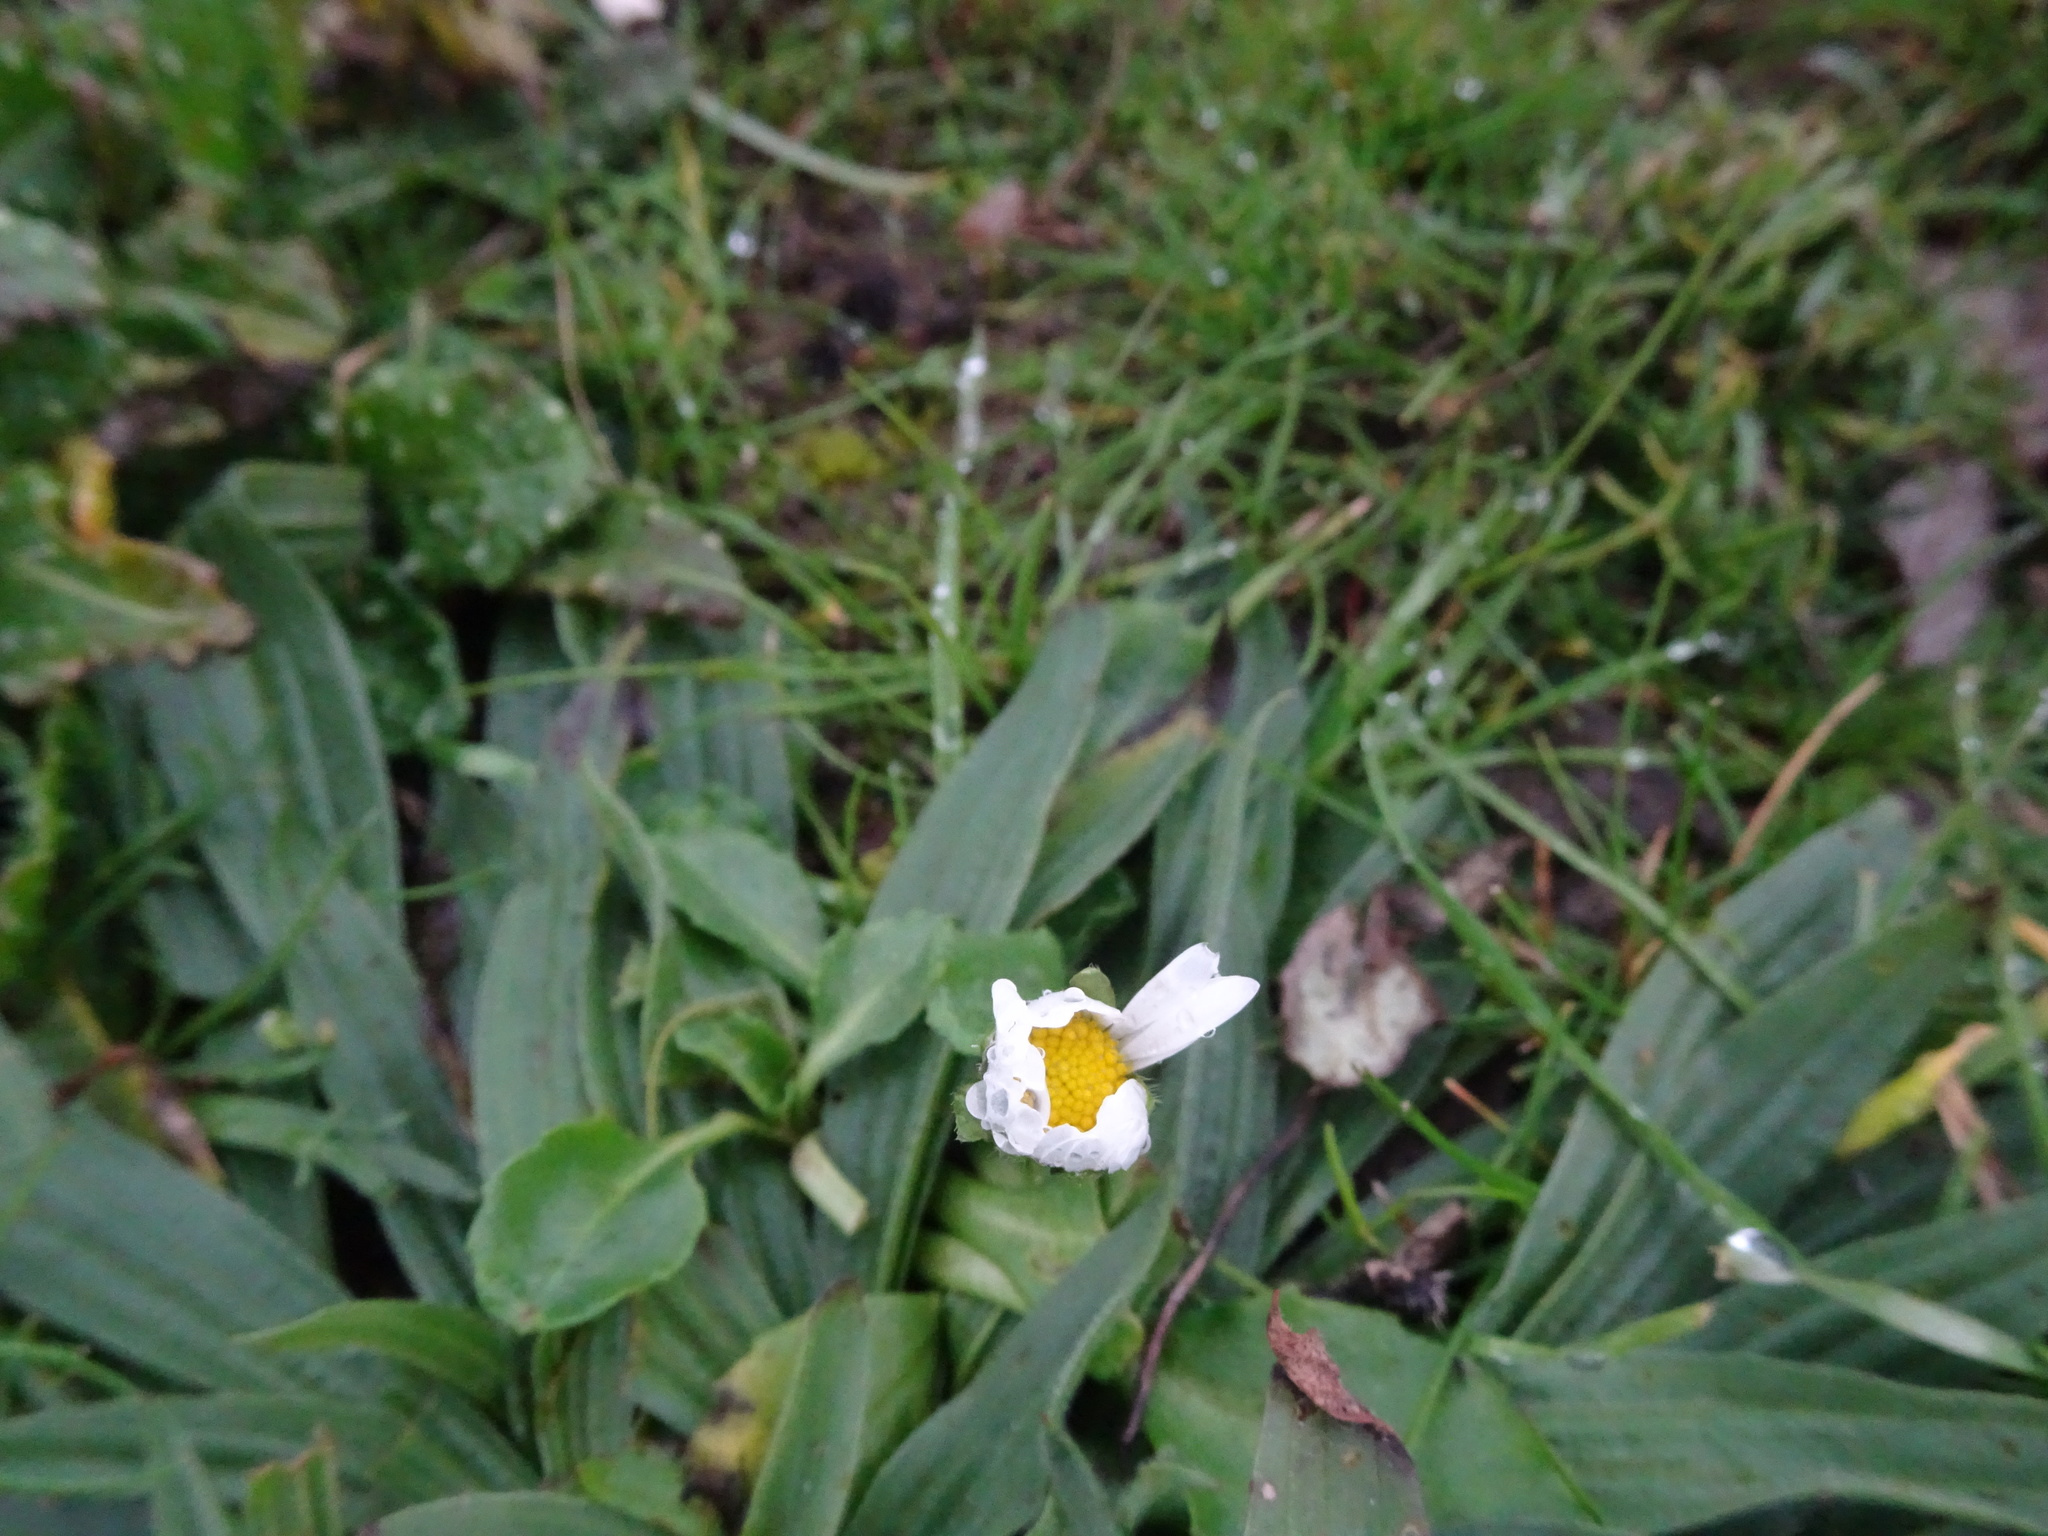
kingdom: Plantae
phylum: Tracheophyta
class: Magnoliopsida
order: Asterales
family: Asteraceae
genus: Bellis
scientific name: Bellis perennis
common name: Lawndaisy
